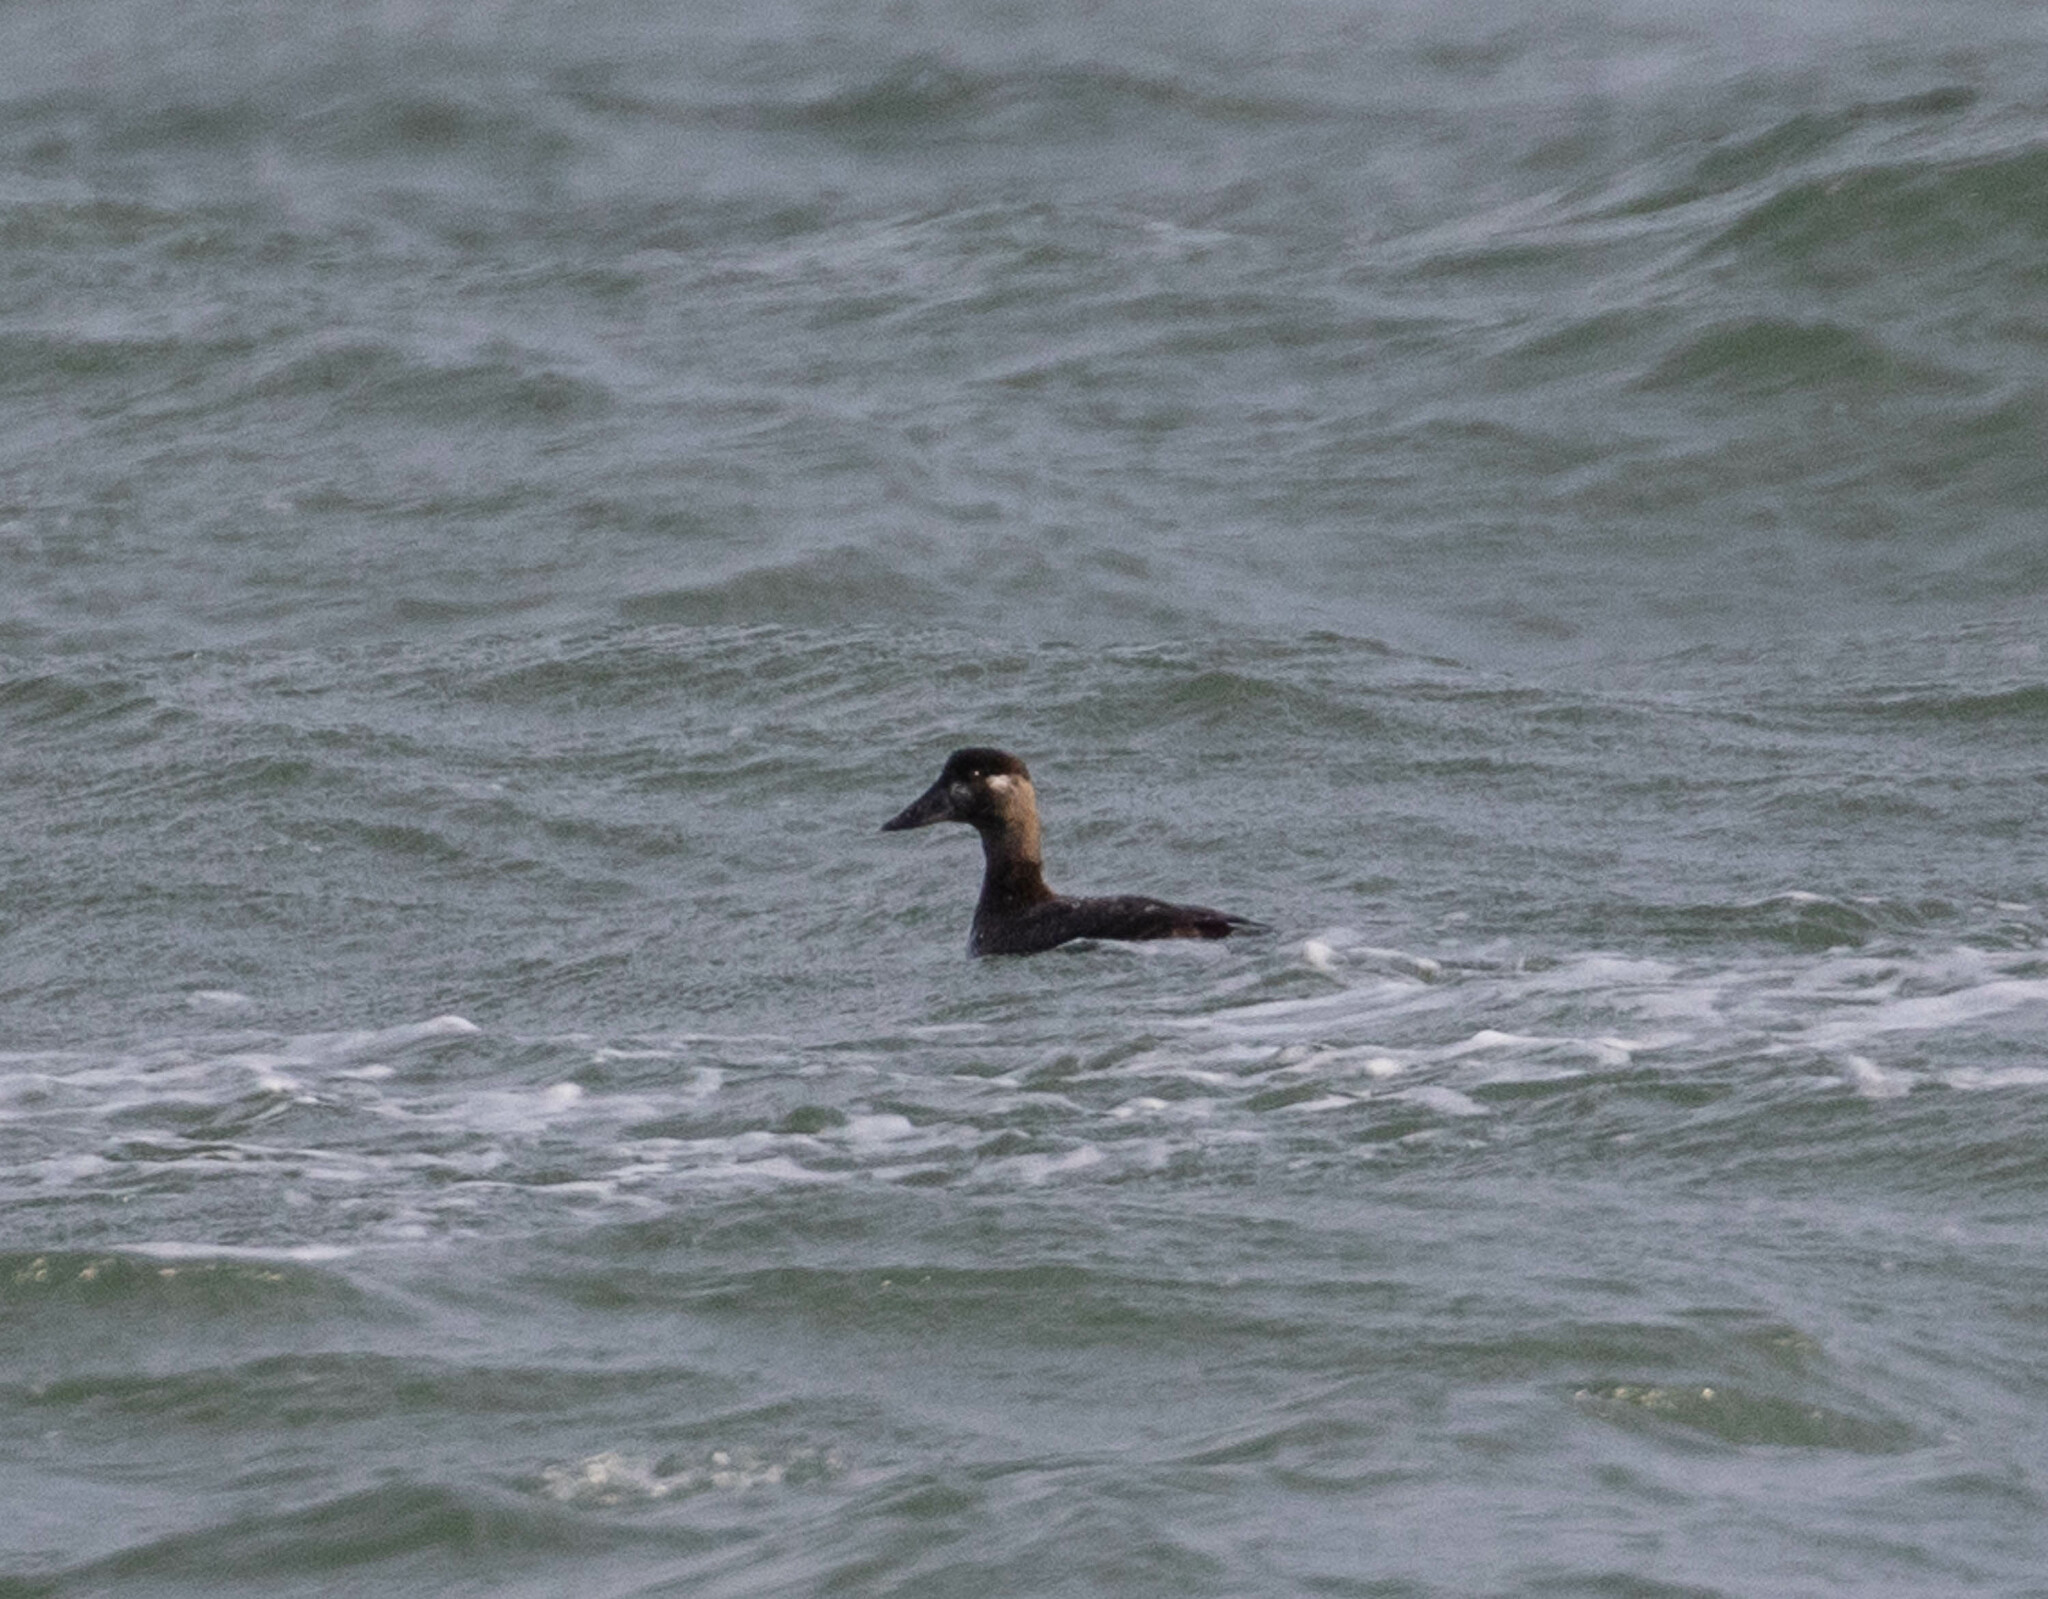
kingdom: Animalia
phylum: Chordata
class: Aves
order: Anseriformes
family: Anatidae
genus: Melanitta
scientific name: Melanitta perspicillata
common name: Surf scoter
